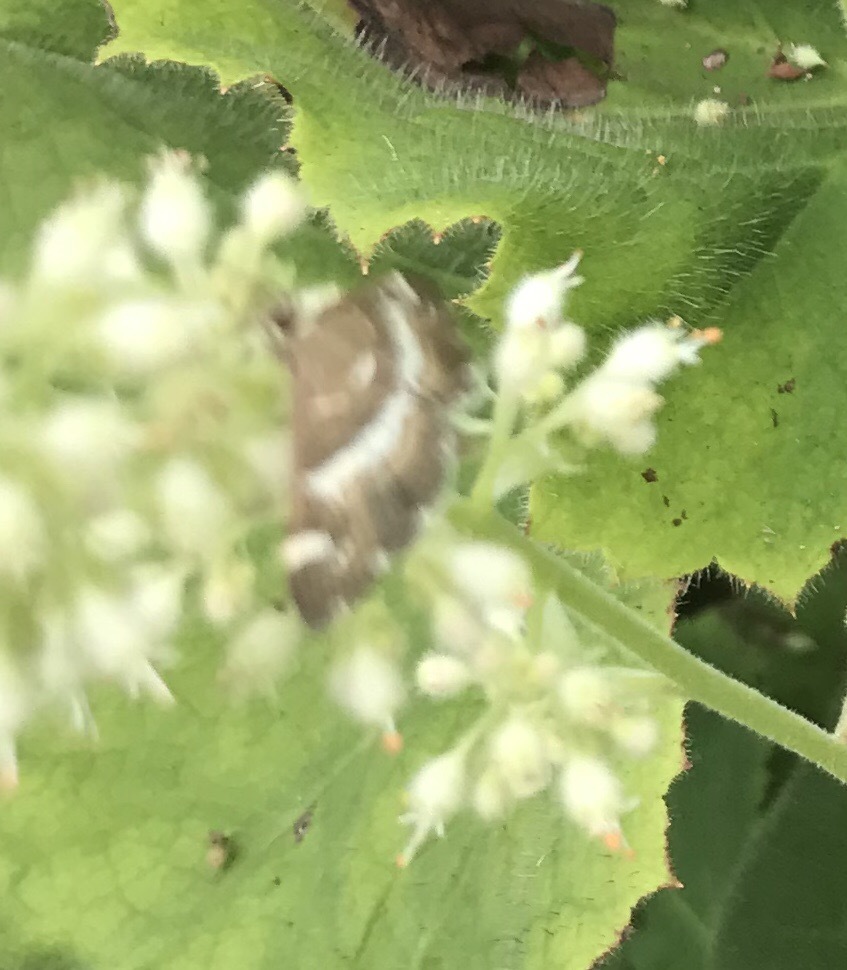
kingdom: Animalia
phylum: Arthropoda
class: Insecta
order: Lepidoptera
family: Crambidae
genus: Spoladea
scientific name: Spoladea recurvalis
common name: Beet webworm moth
